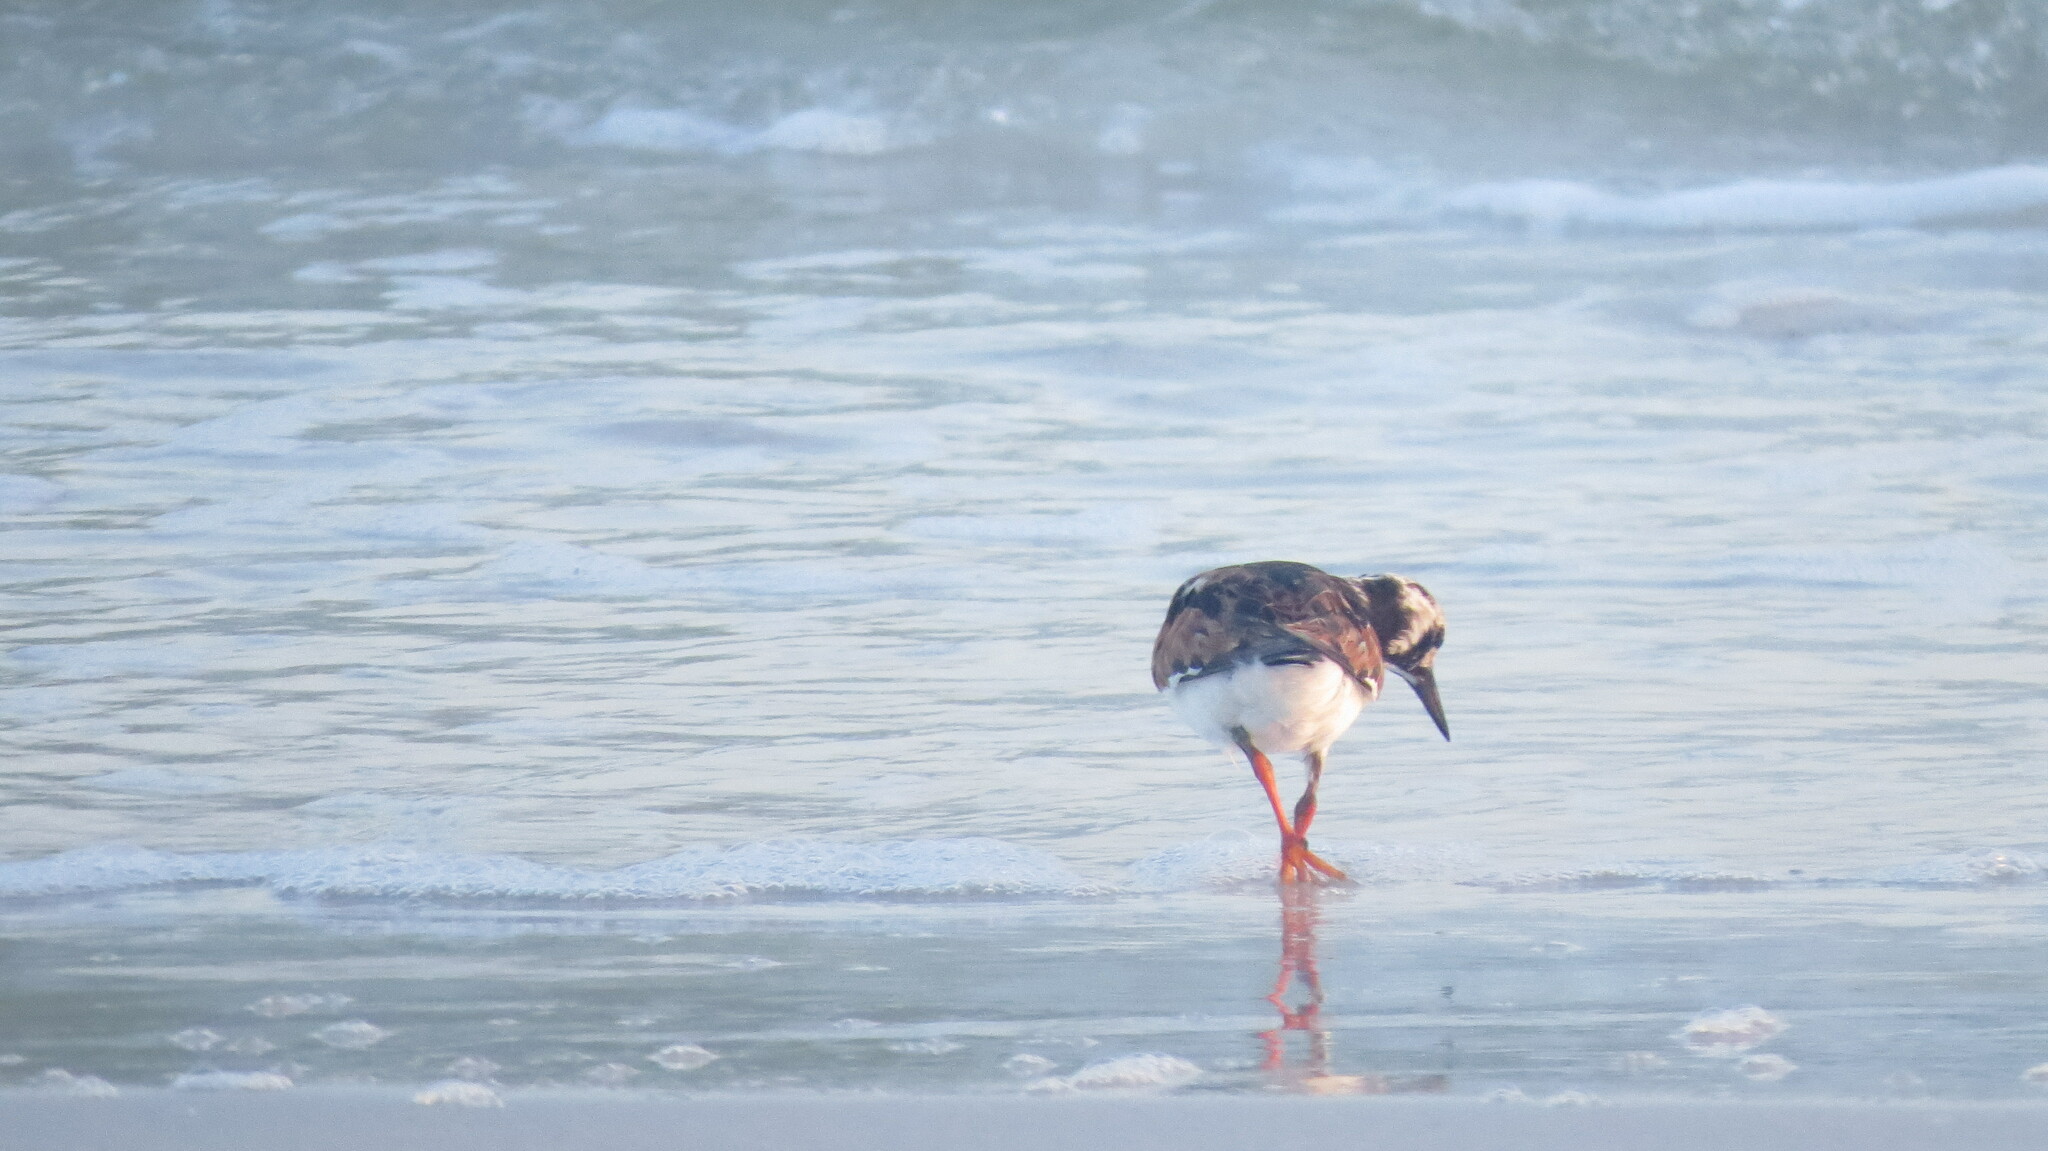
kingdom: Animalia
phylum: Chordata
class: Aves
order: Charadriiformes
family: Scolopacidae
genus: Arenaria
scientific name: Arenaria interpres
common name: Ruddy turnstone
